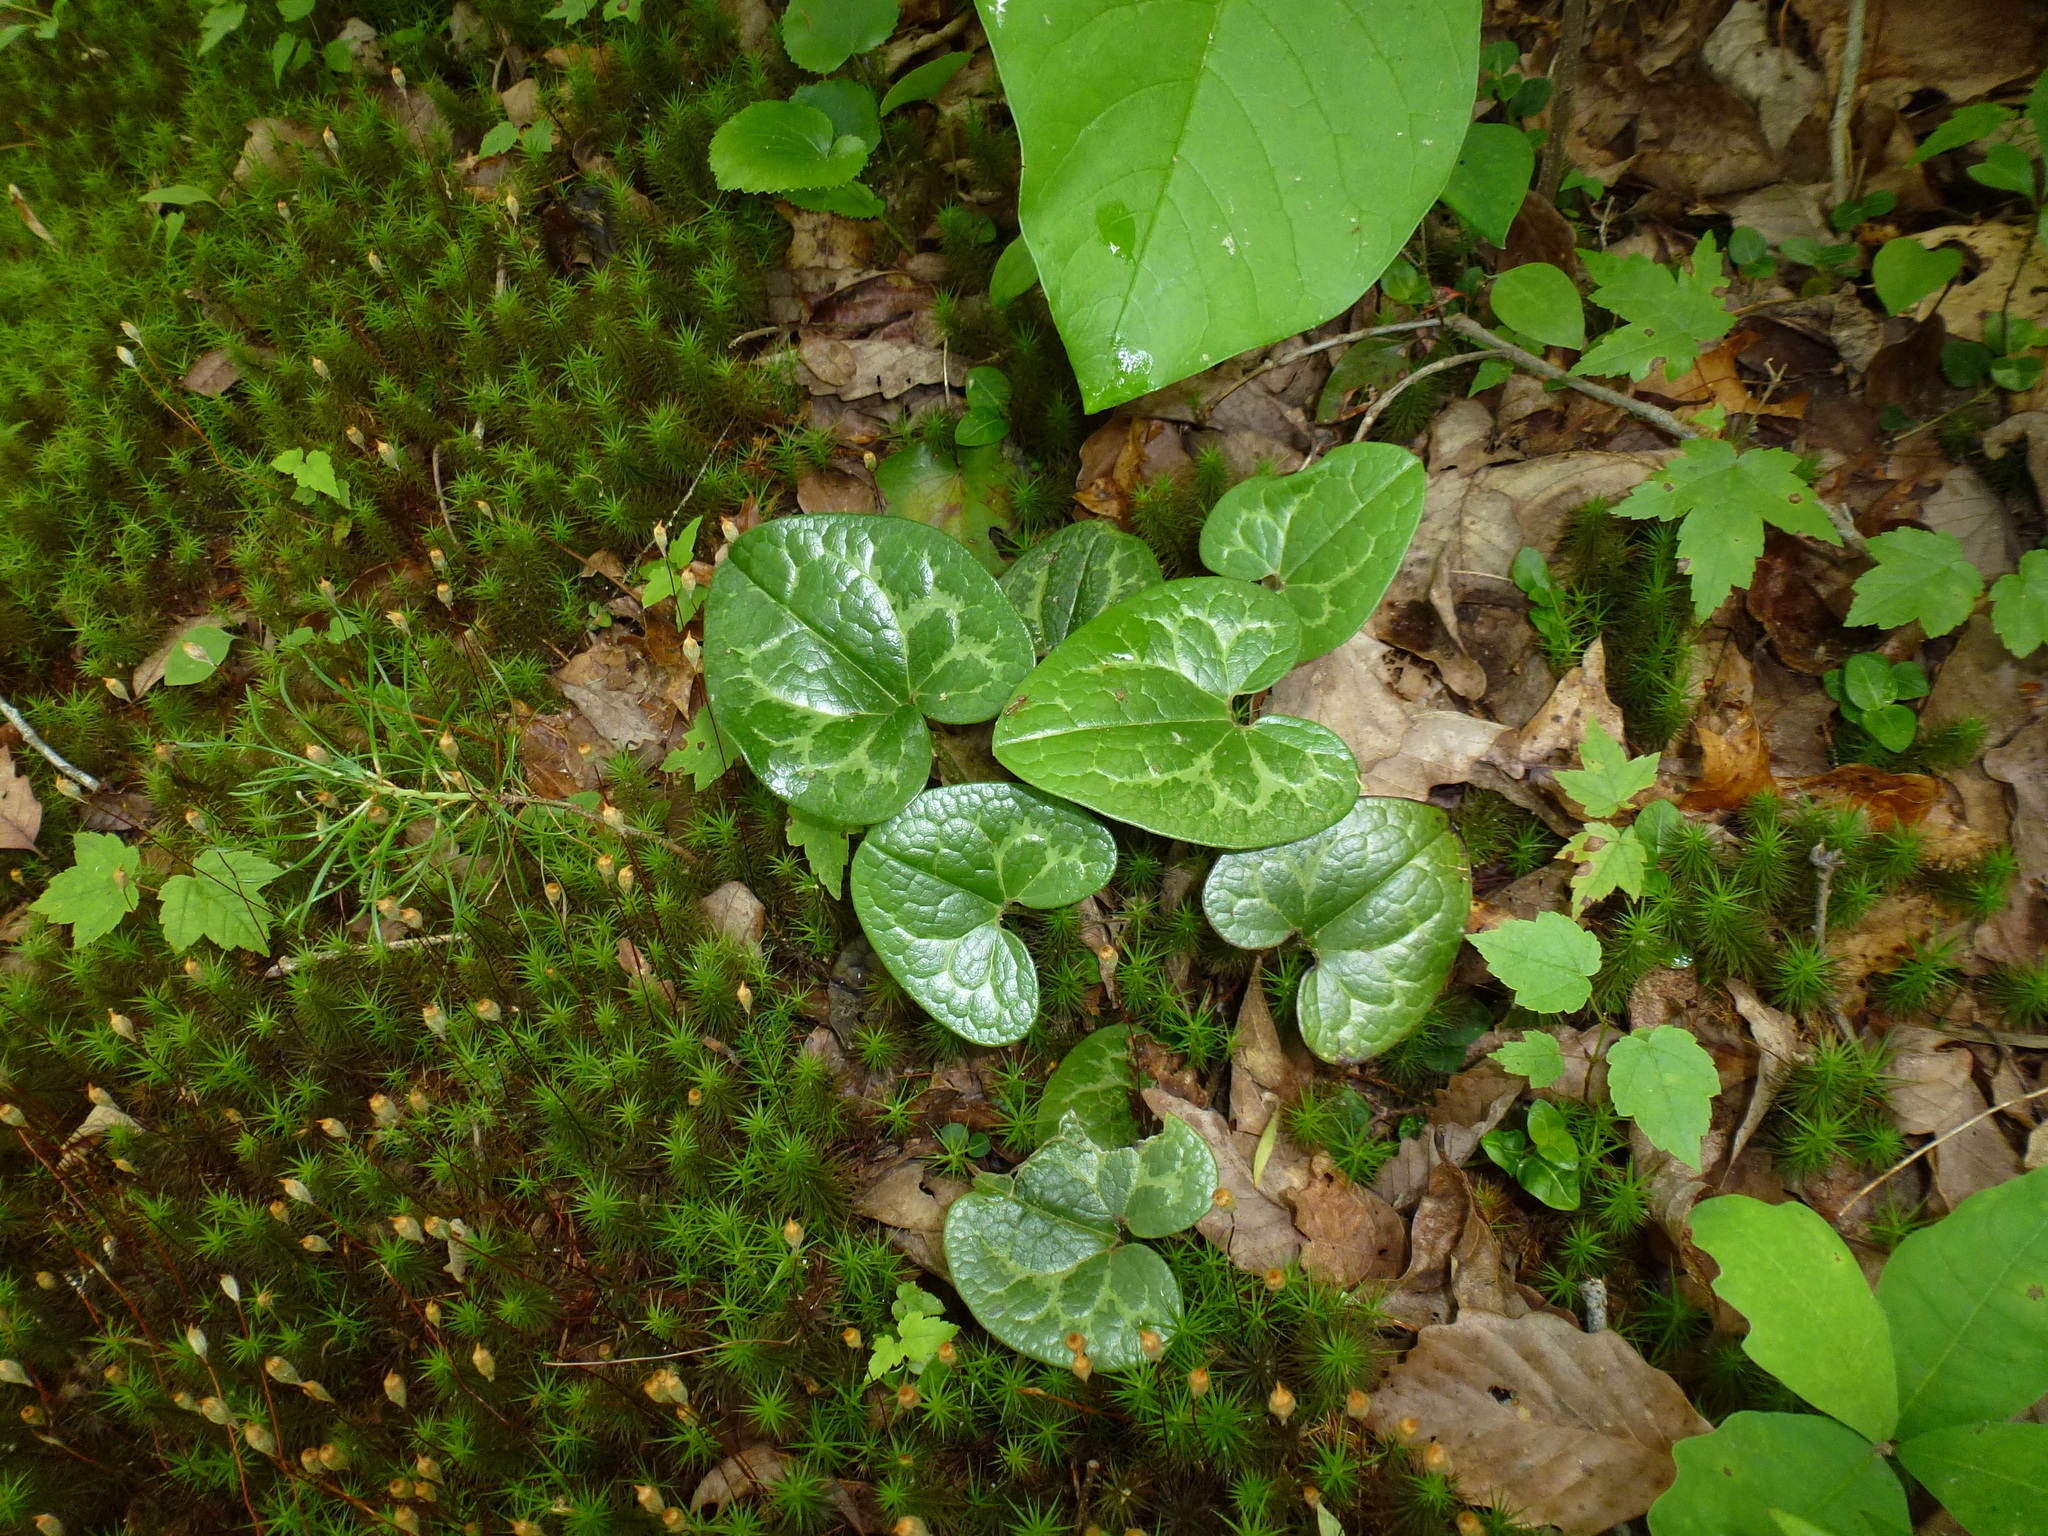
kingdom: Plantae
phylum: Tracheophyta
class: Magnoliopsida
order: Piperales
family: Aristolochiaceae
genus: Hexastylis
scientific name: Hexastylis shuttleworthii
